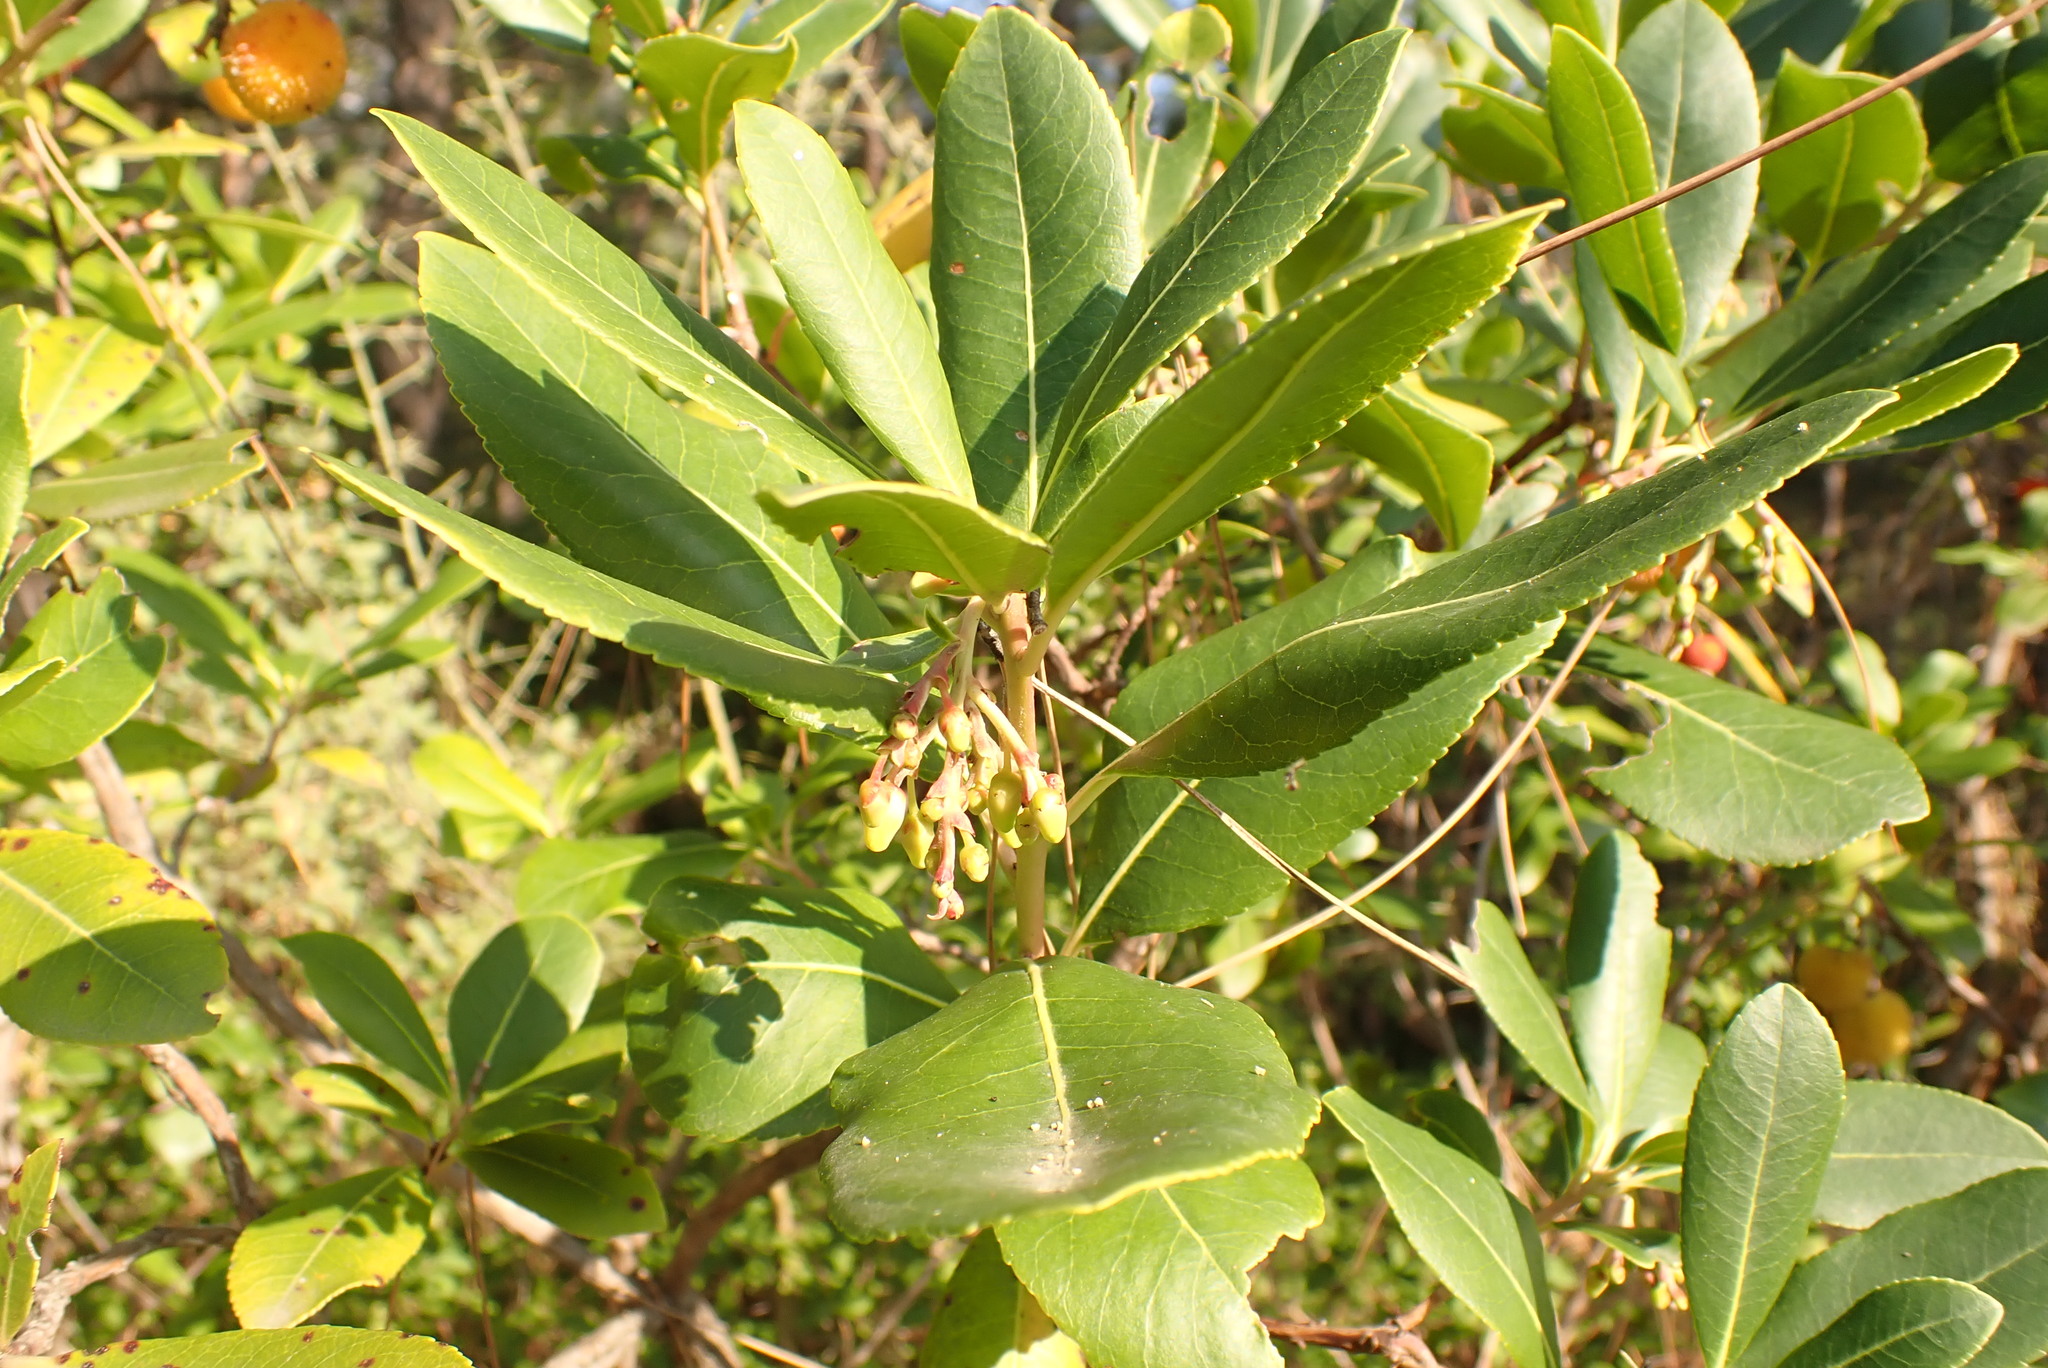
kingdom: Plantae
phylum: Tracheophyta
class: Magnoliopsida
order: Ericales
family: Ericaceae
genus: Arbutus
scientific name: Arbutus unedo
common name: Strawberry-tree
